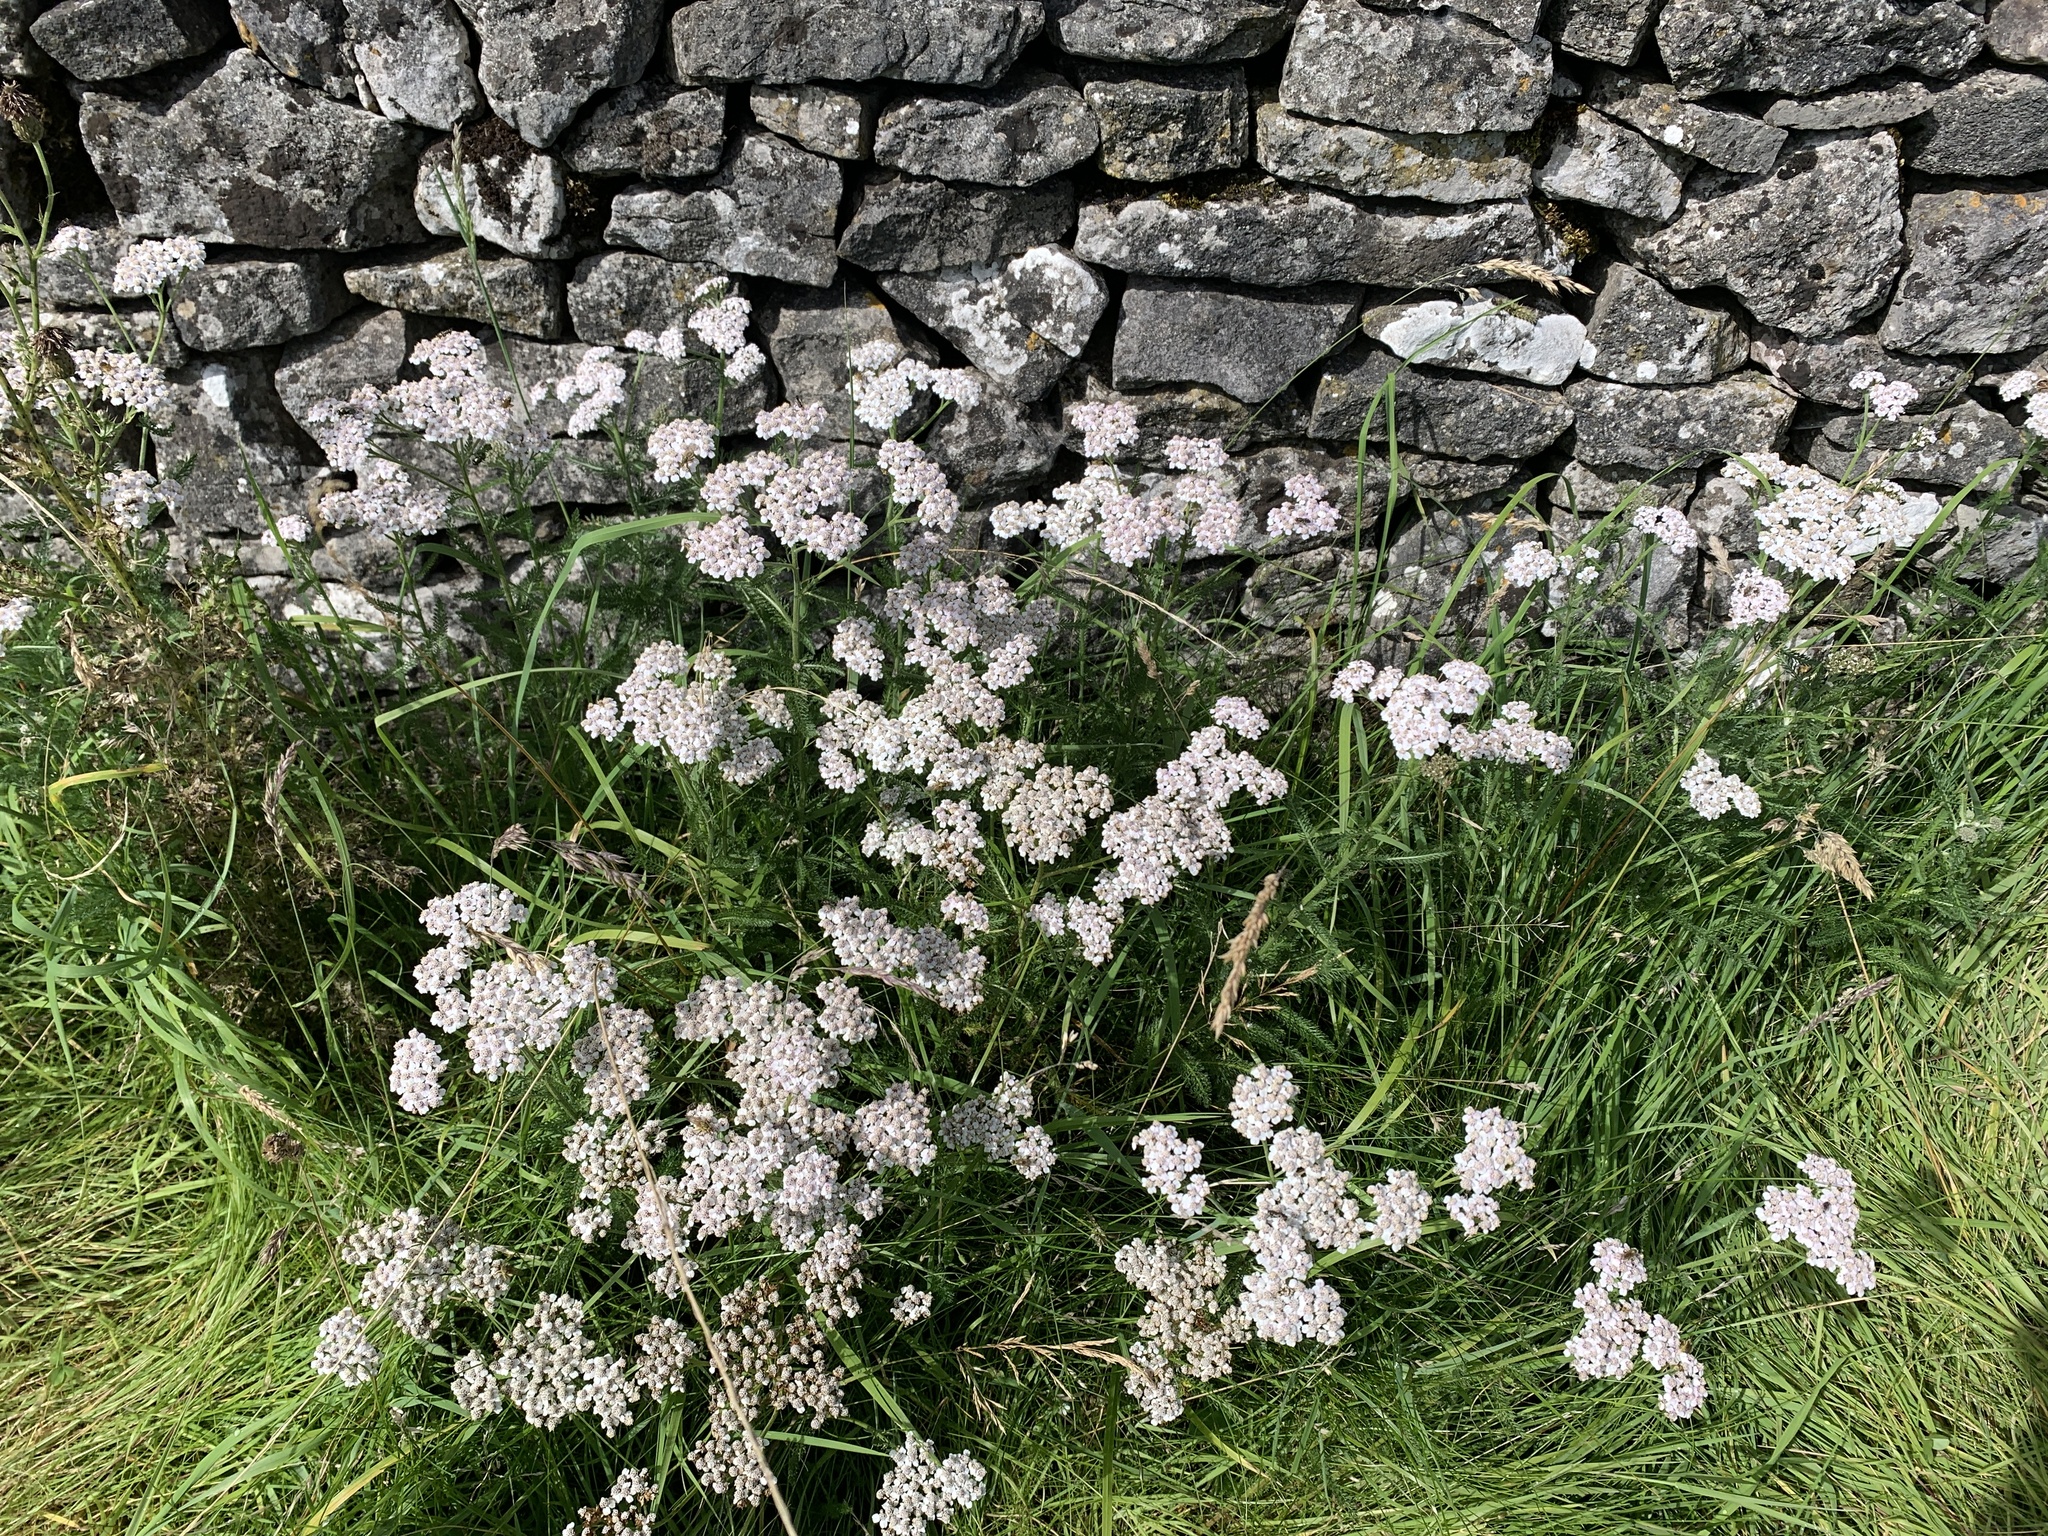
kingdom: Plantae
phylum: Tracheophyta
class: Magnoliopsida
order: Asterales
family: Asteraceae
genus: Achillea
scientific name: Achillea millefolium
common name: Yarrow
